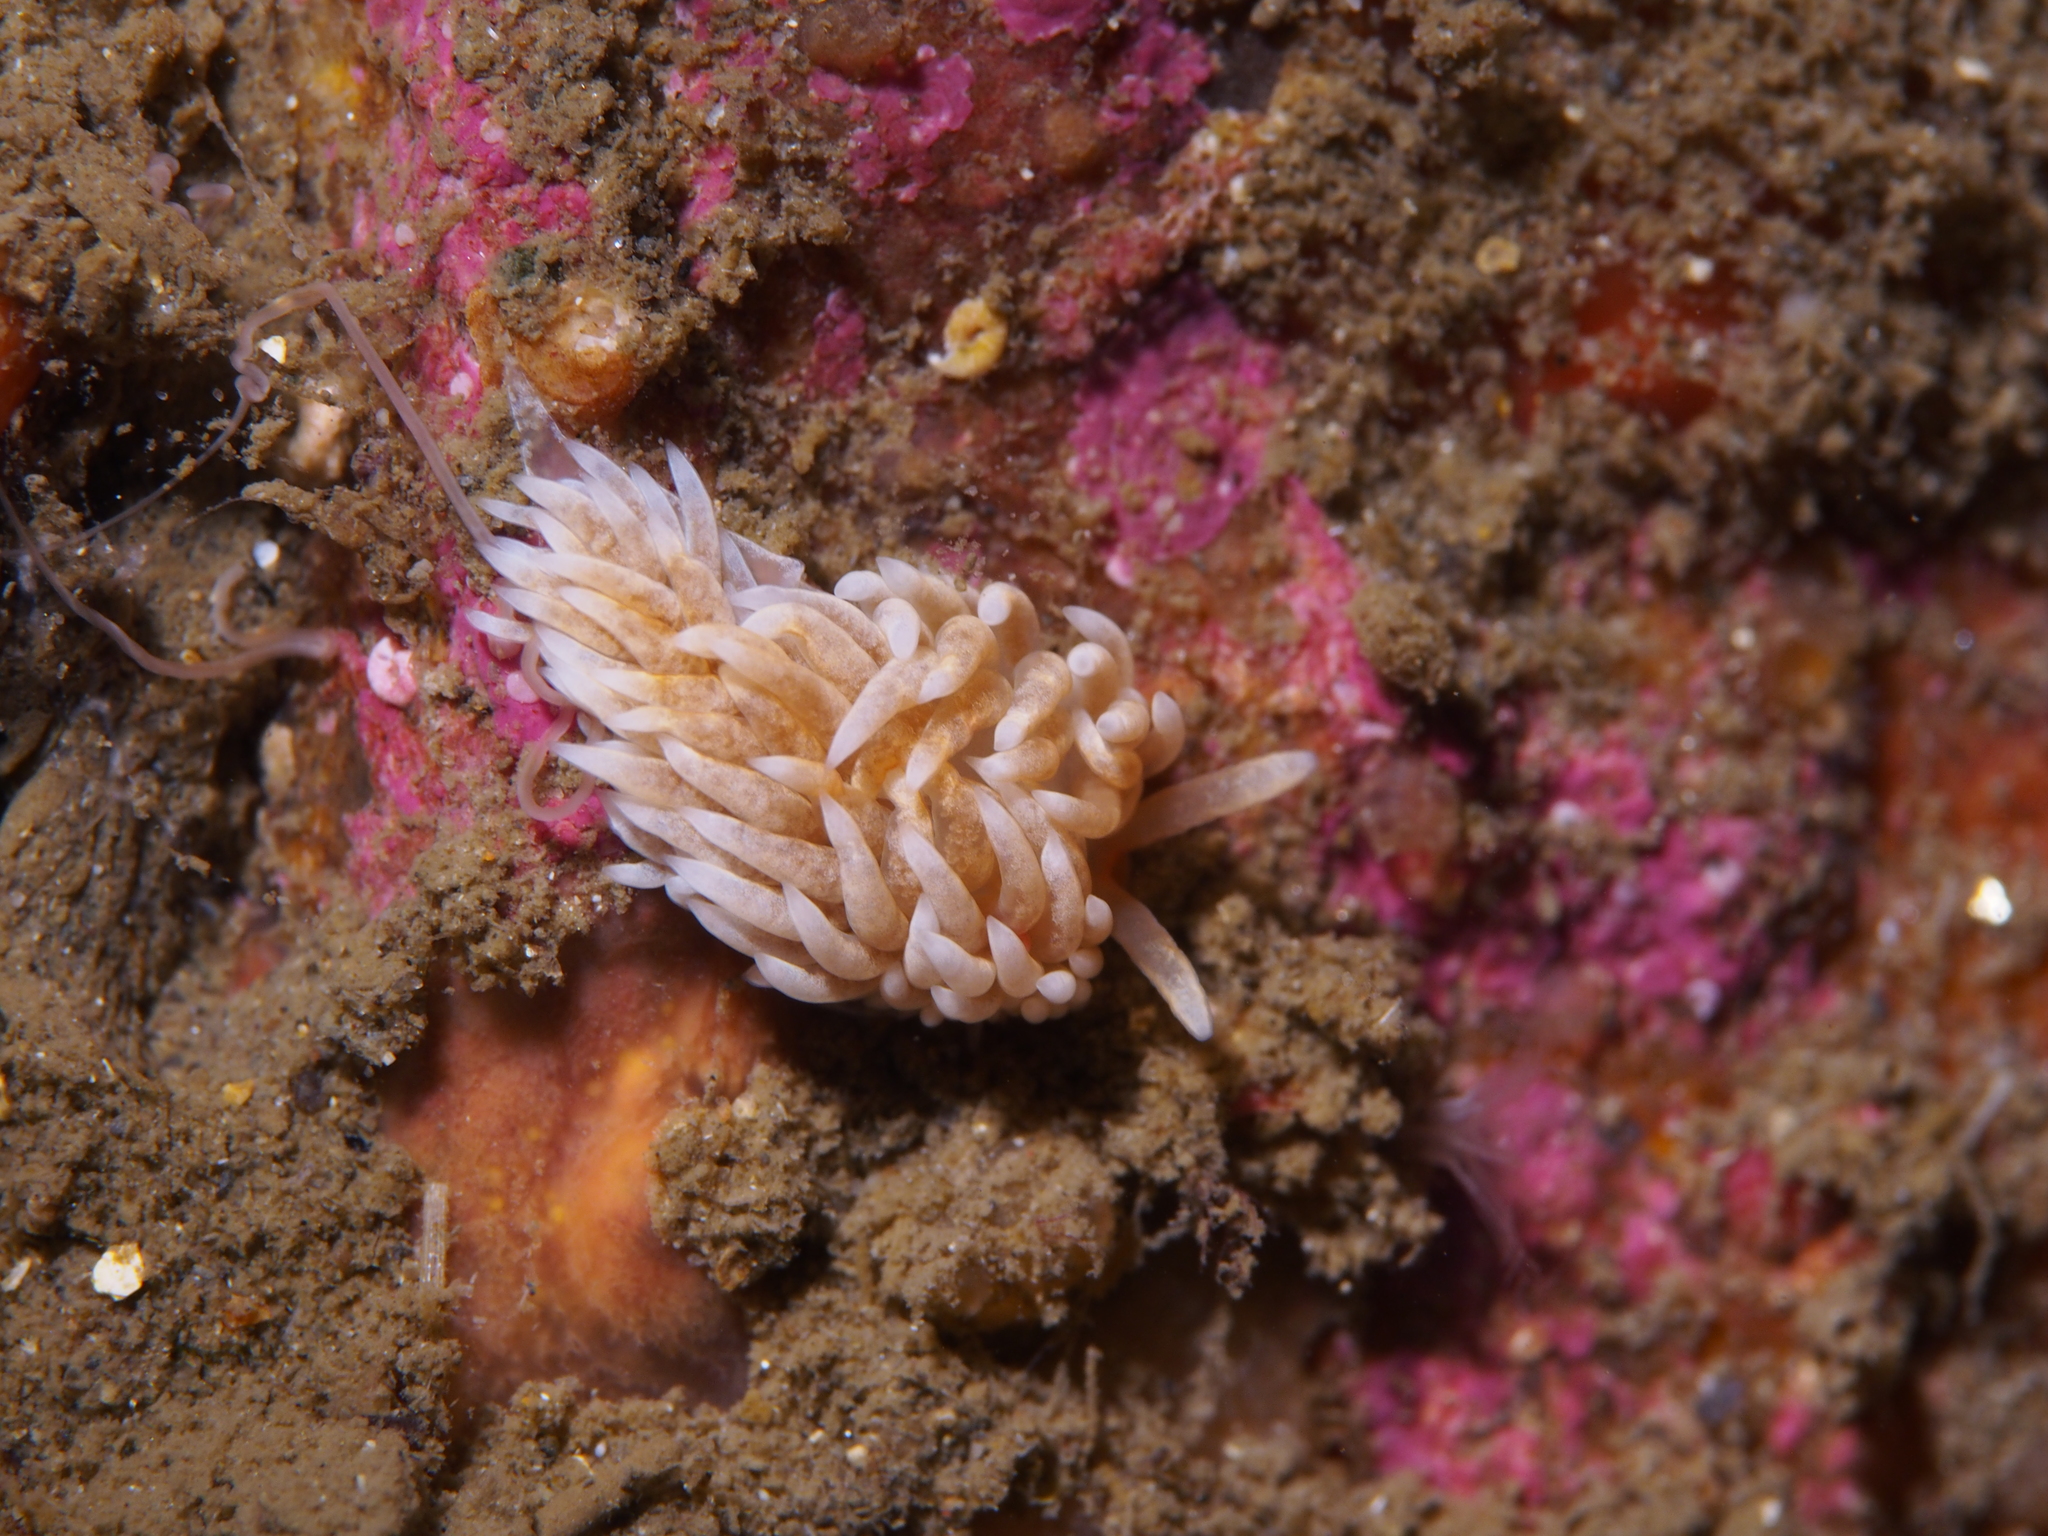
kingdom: Animalia
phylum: Mollusca
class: Gastropoda
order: Nudibranchia
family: Aeolidiidae
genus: Aeolidiella
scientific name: Aeolidiella glauca
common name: Orange-brown aeolid
